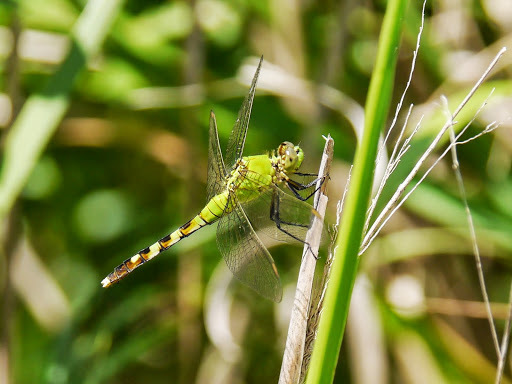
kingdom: Animalia
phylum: Arthropoda
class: Insecta
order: Odonata
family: Libellulidae
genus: Erythemis
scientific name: Erythemis simplicicollis
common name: Eastern pondhawk
